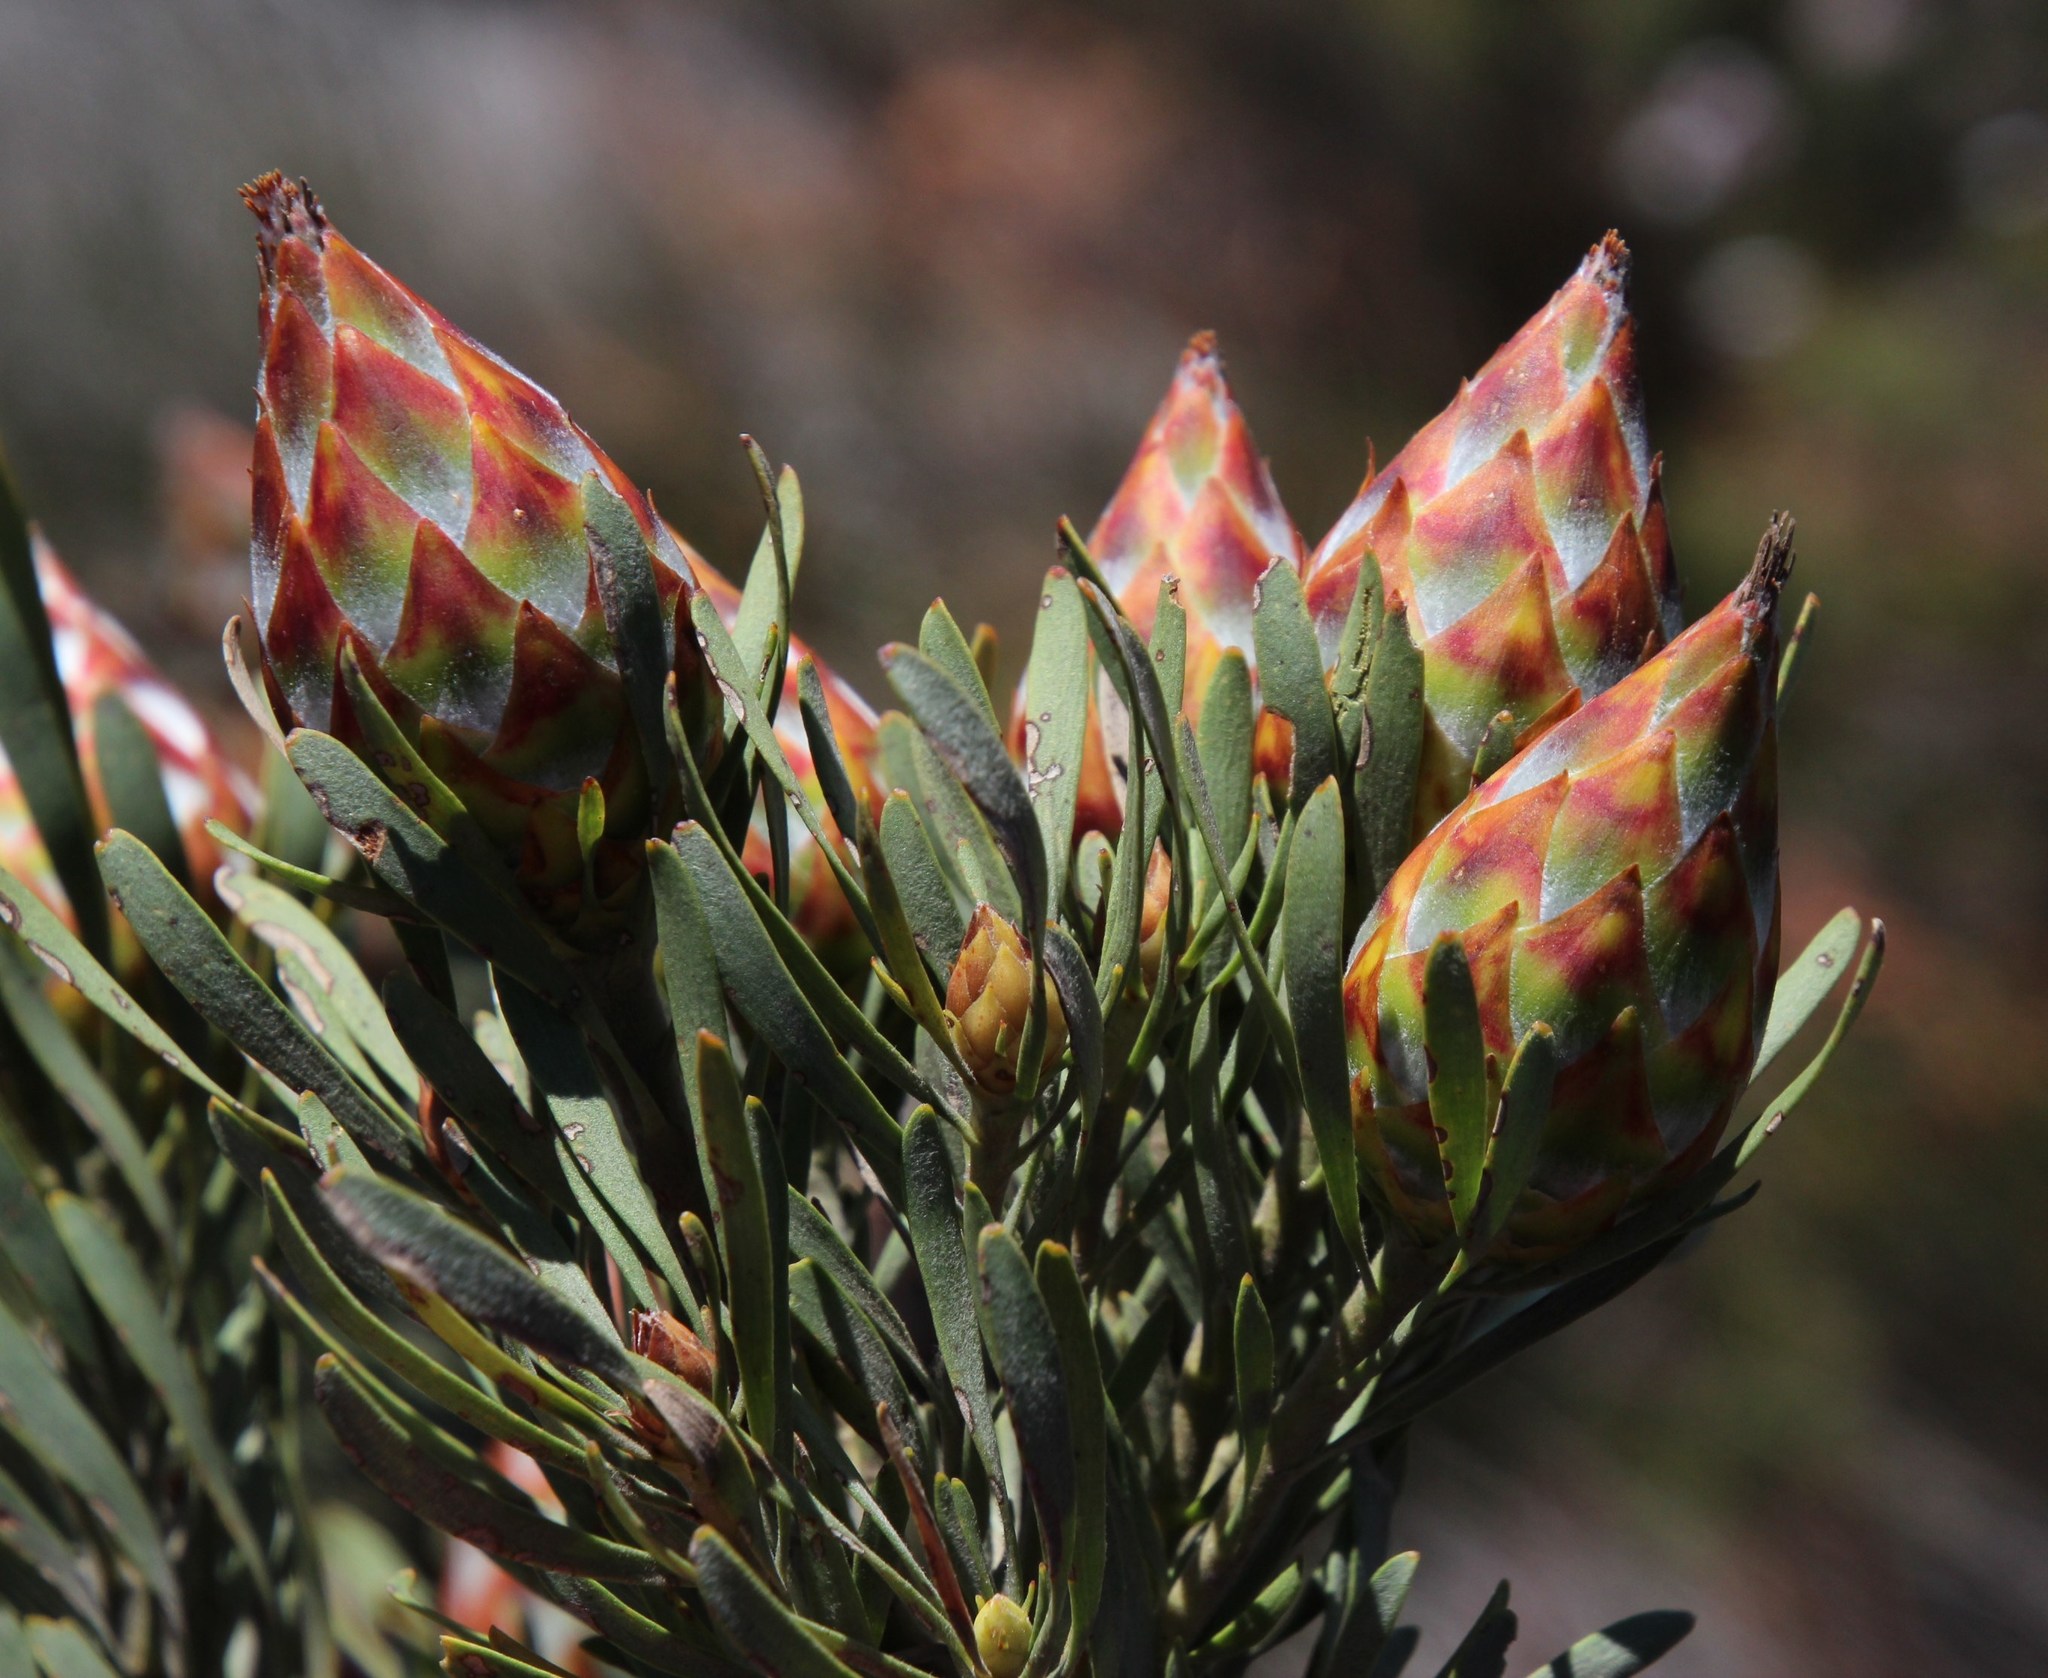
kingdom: Plantae
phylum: Tracheophyta
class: Magnoliopsida
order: Proteales
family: Proteaceae
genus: Leucadendron
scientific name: Leucadendron rubrum
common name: Spinning top
